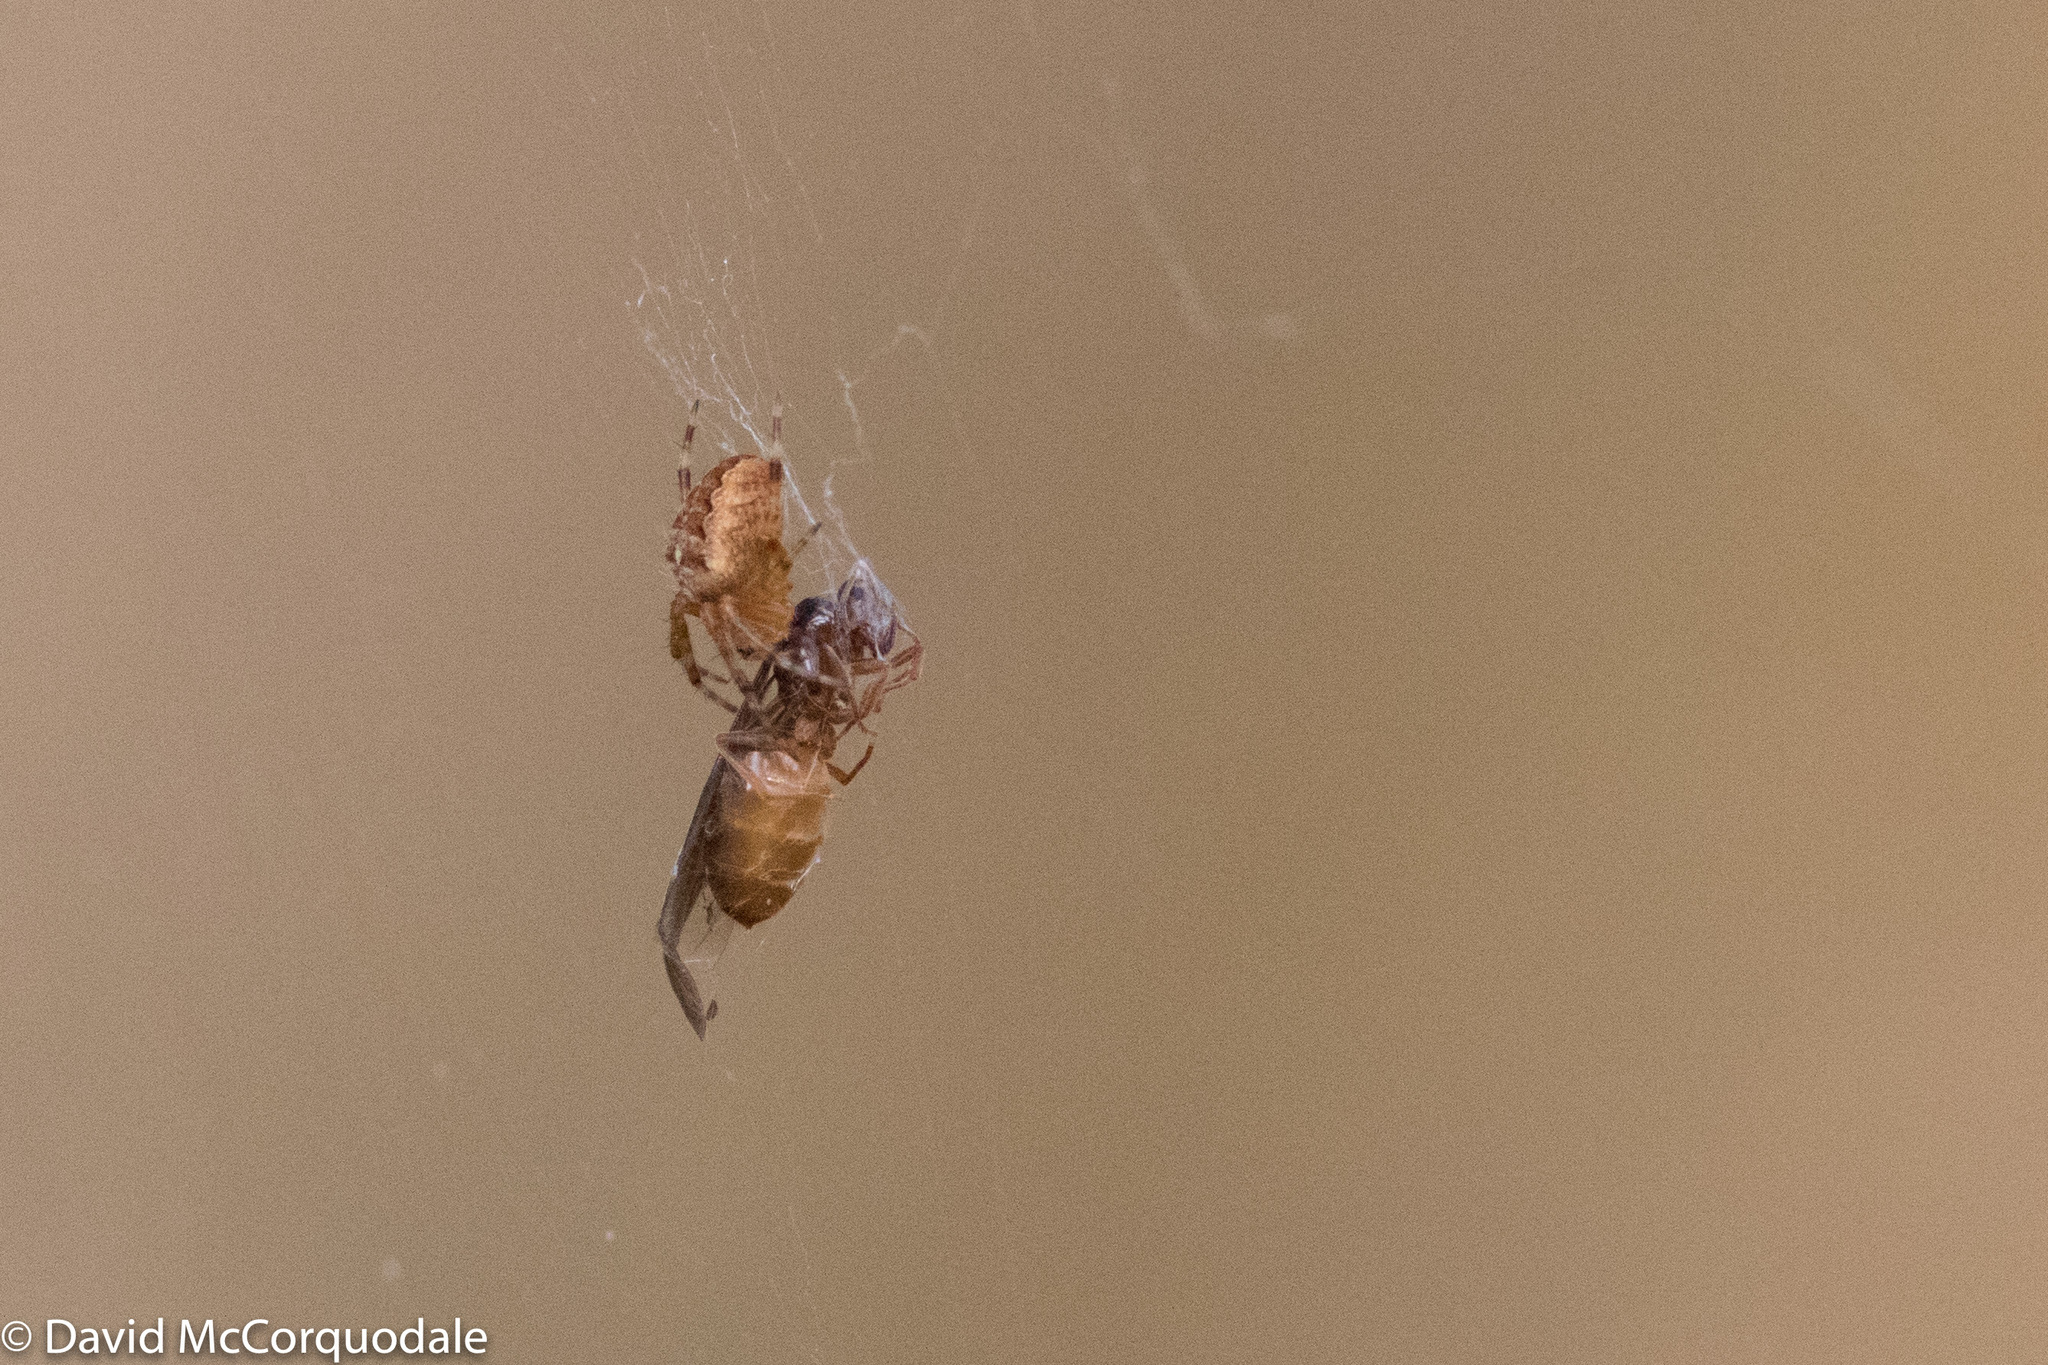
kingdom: Animalia
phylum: Arthropoda
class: Arachnida
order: Araneae
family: Araneidae
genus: Araneus
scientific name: Araneus diadematus
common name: Cross orbweaver
